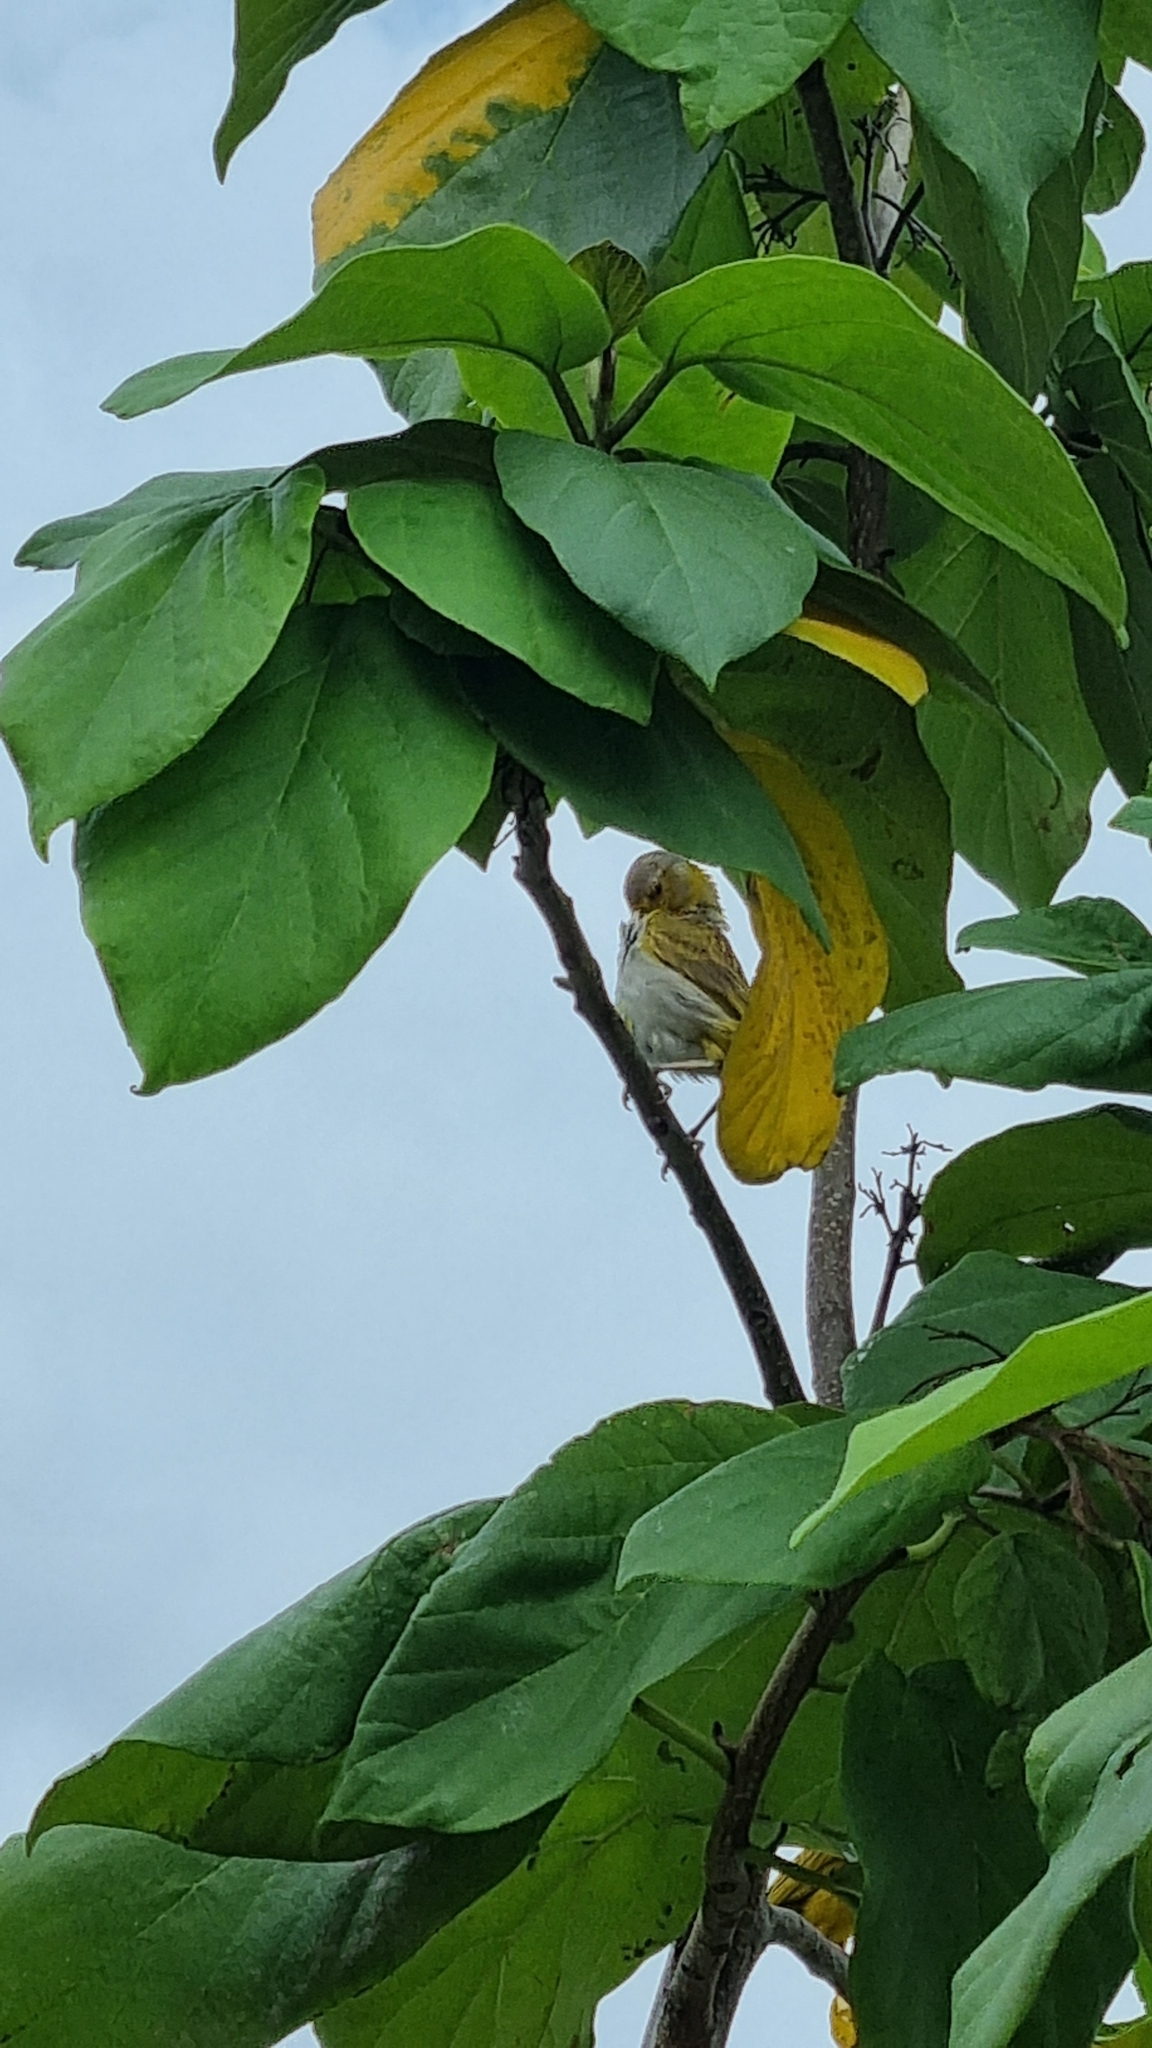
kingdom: Animalia
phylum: Chordata
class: Aves
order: Passeriformes
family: Thraupidae
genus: Sicalis
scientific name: Sicalis flaveola
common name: Saffron finch
